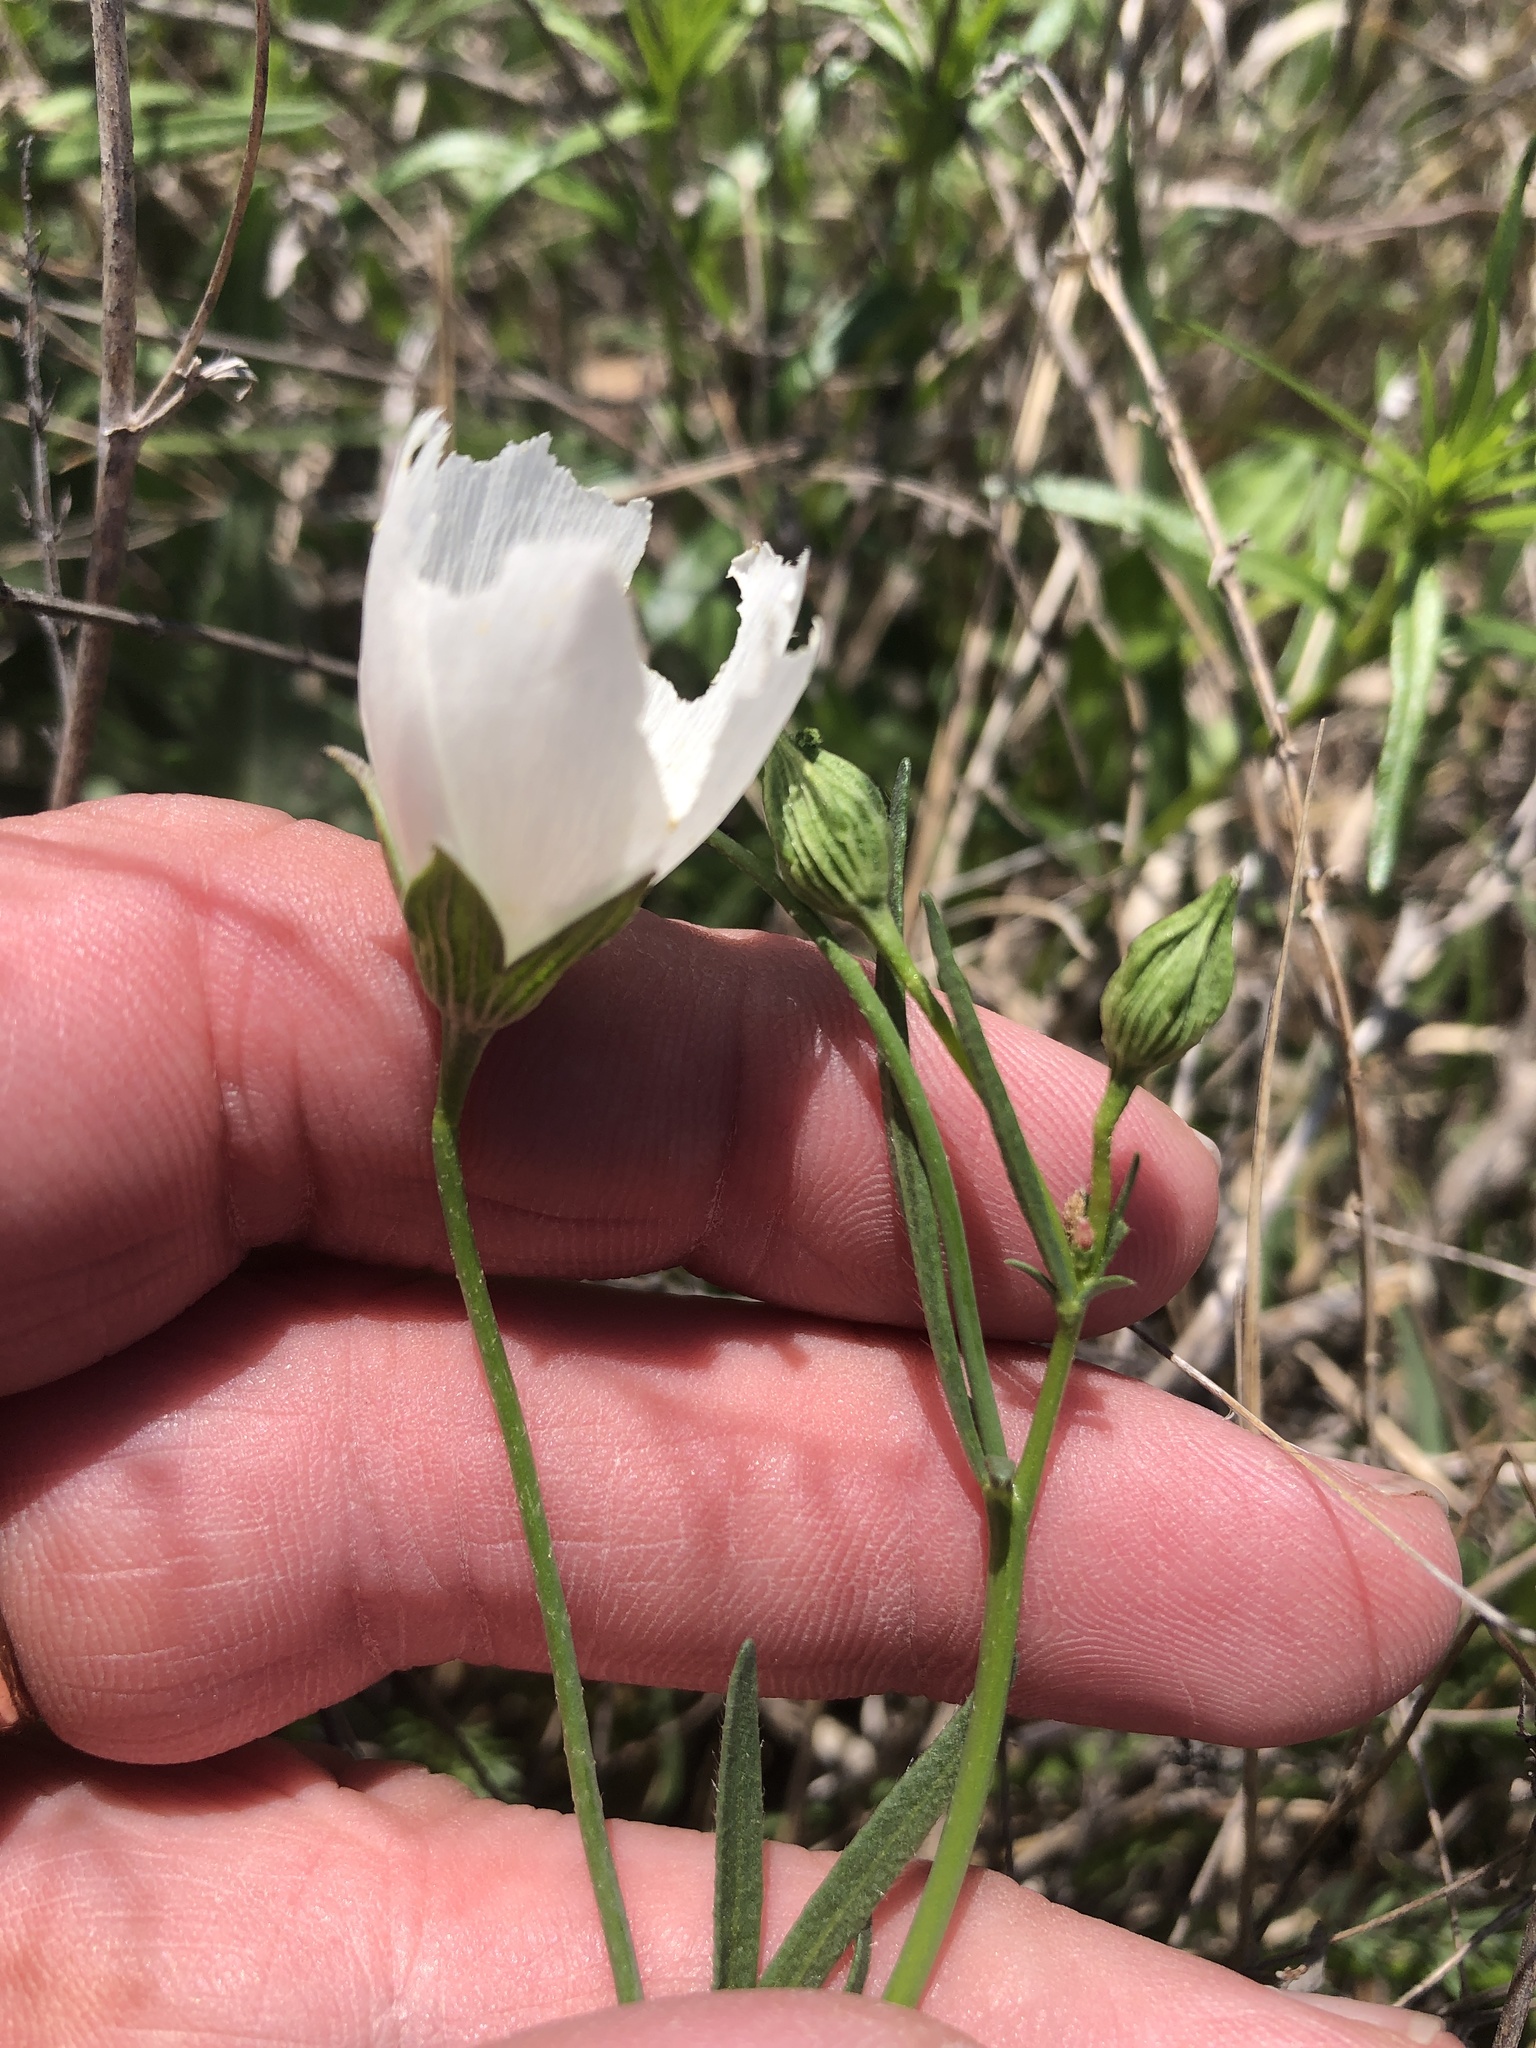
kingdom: Plantae
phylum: Tracheophyta
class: Magnoliopsida
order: Malvales
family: Malvaceae
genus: Callirhoe
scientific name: Callirhoe pedata
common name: Finger poppy-mallow
